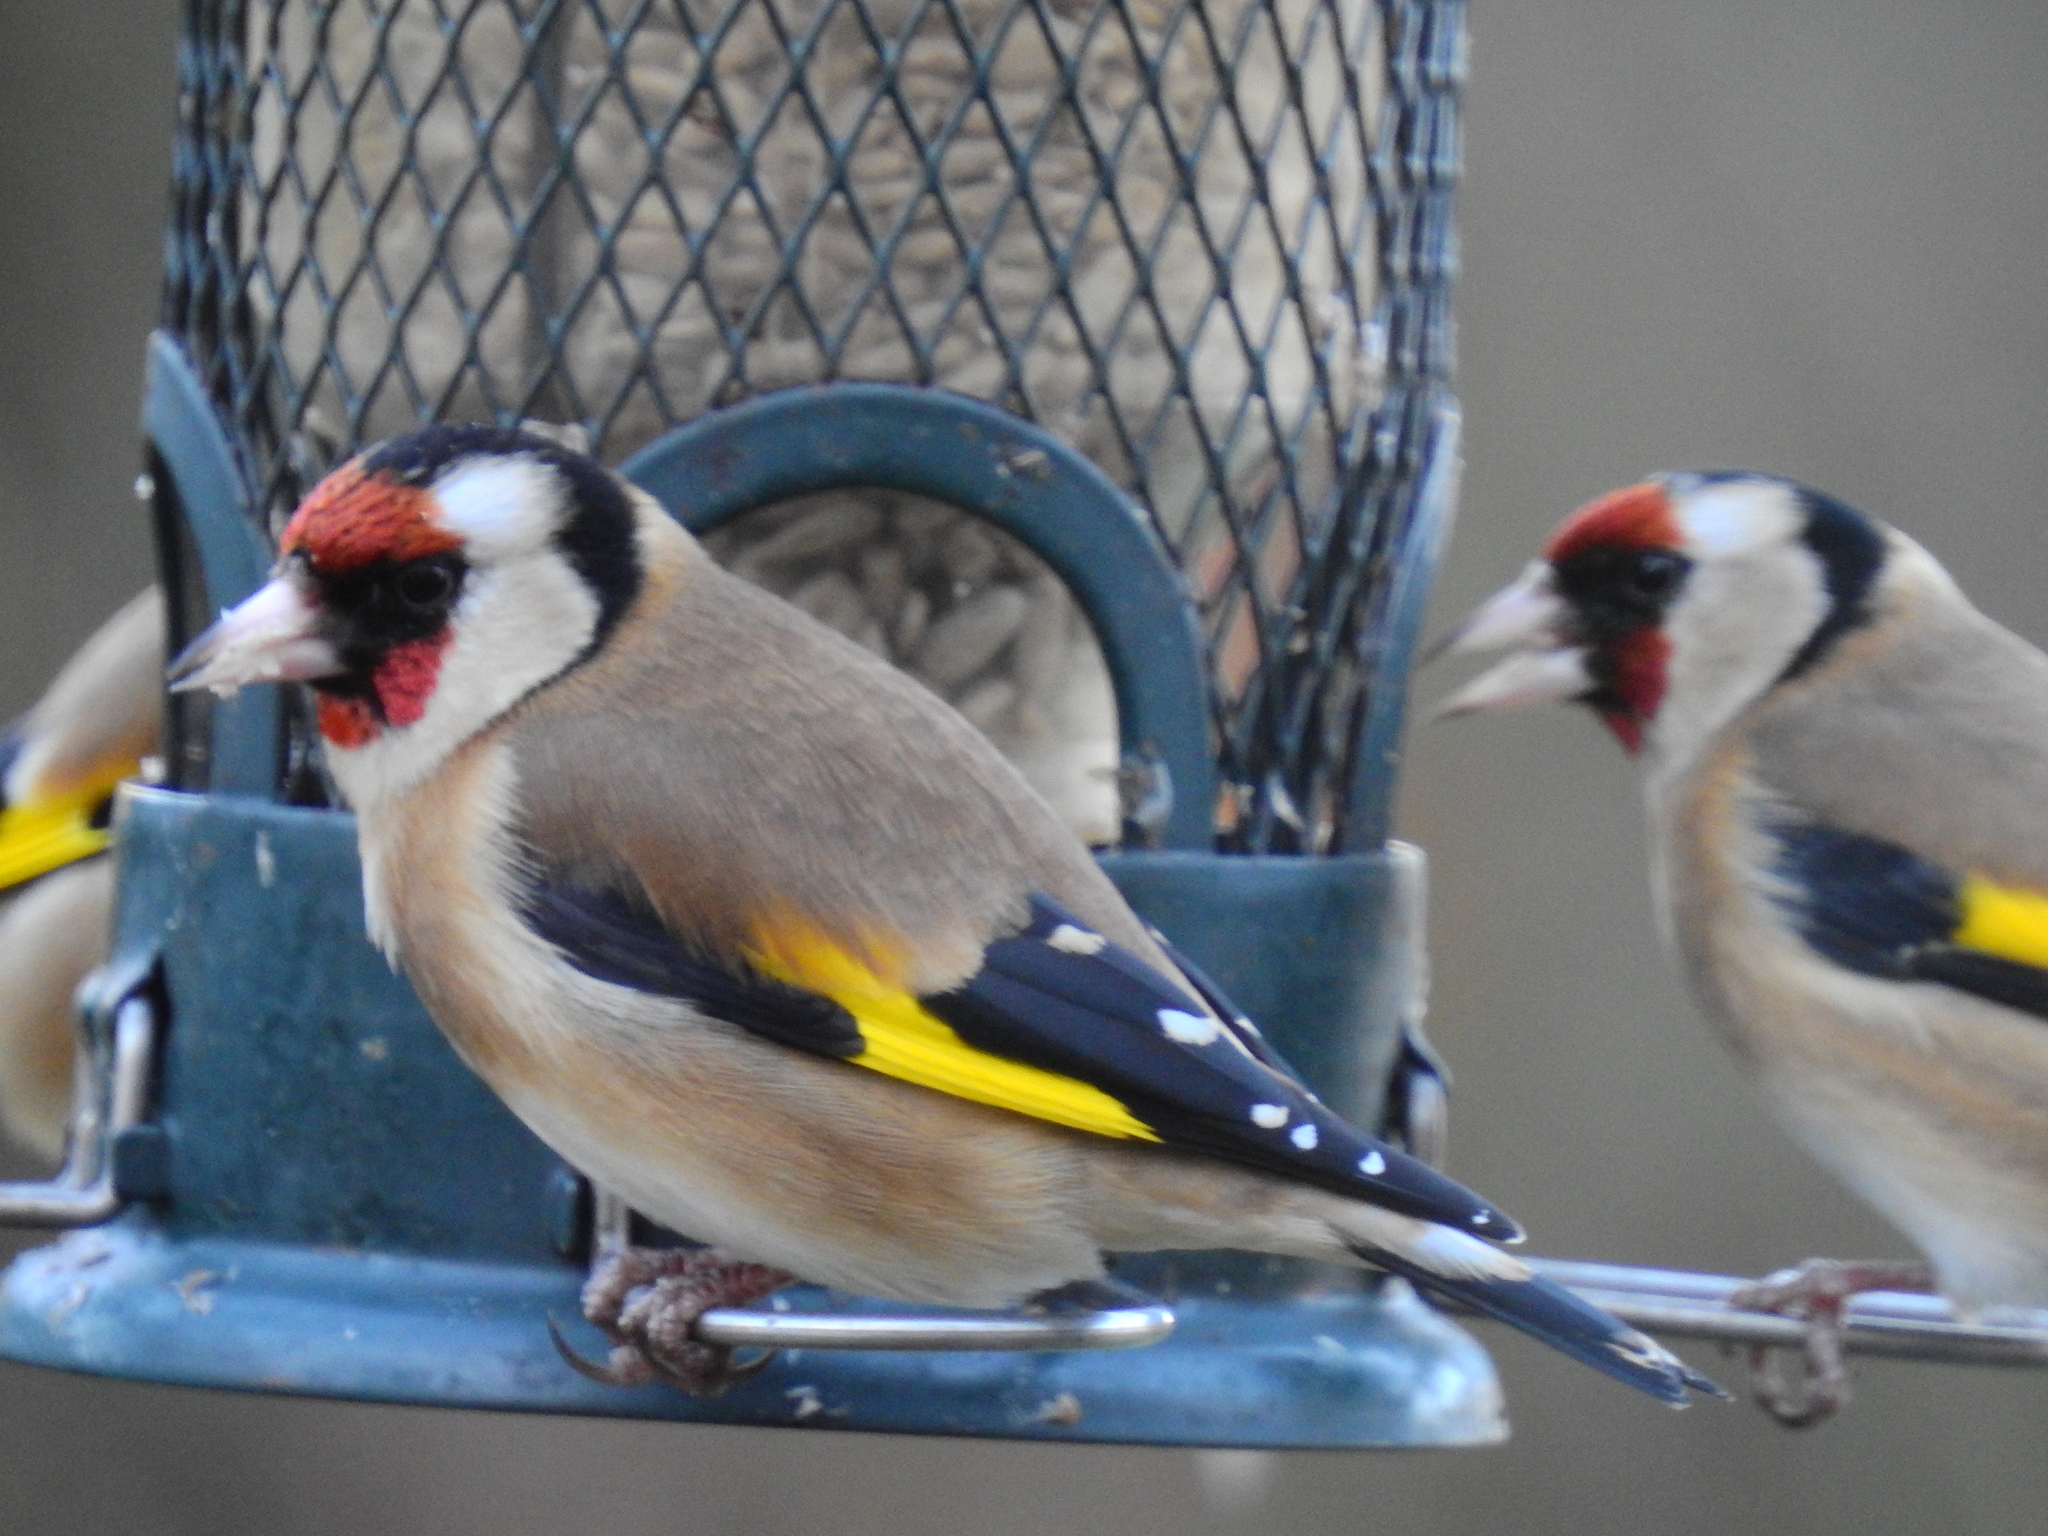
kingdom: Animalia
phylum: Chordata
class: Aves
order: Passeriformes
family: Fringillidae
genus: Carduelis
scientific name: Carduelis carduelis
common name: European goldfinch
